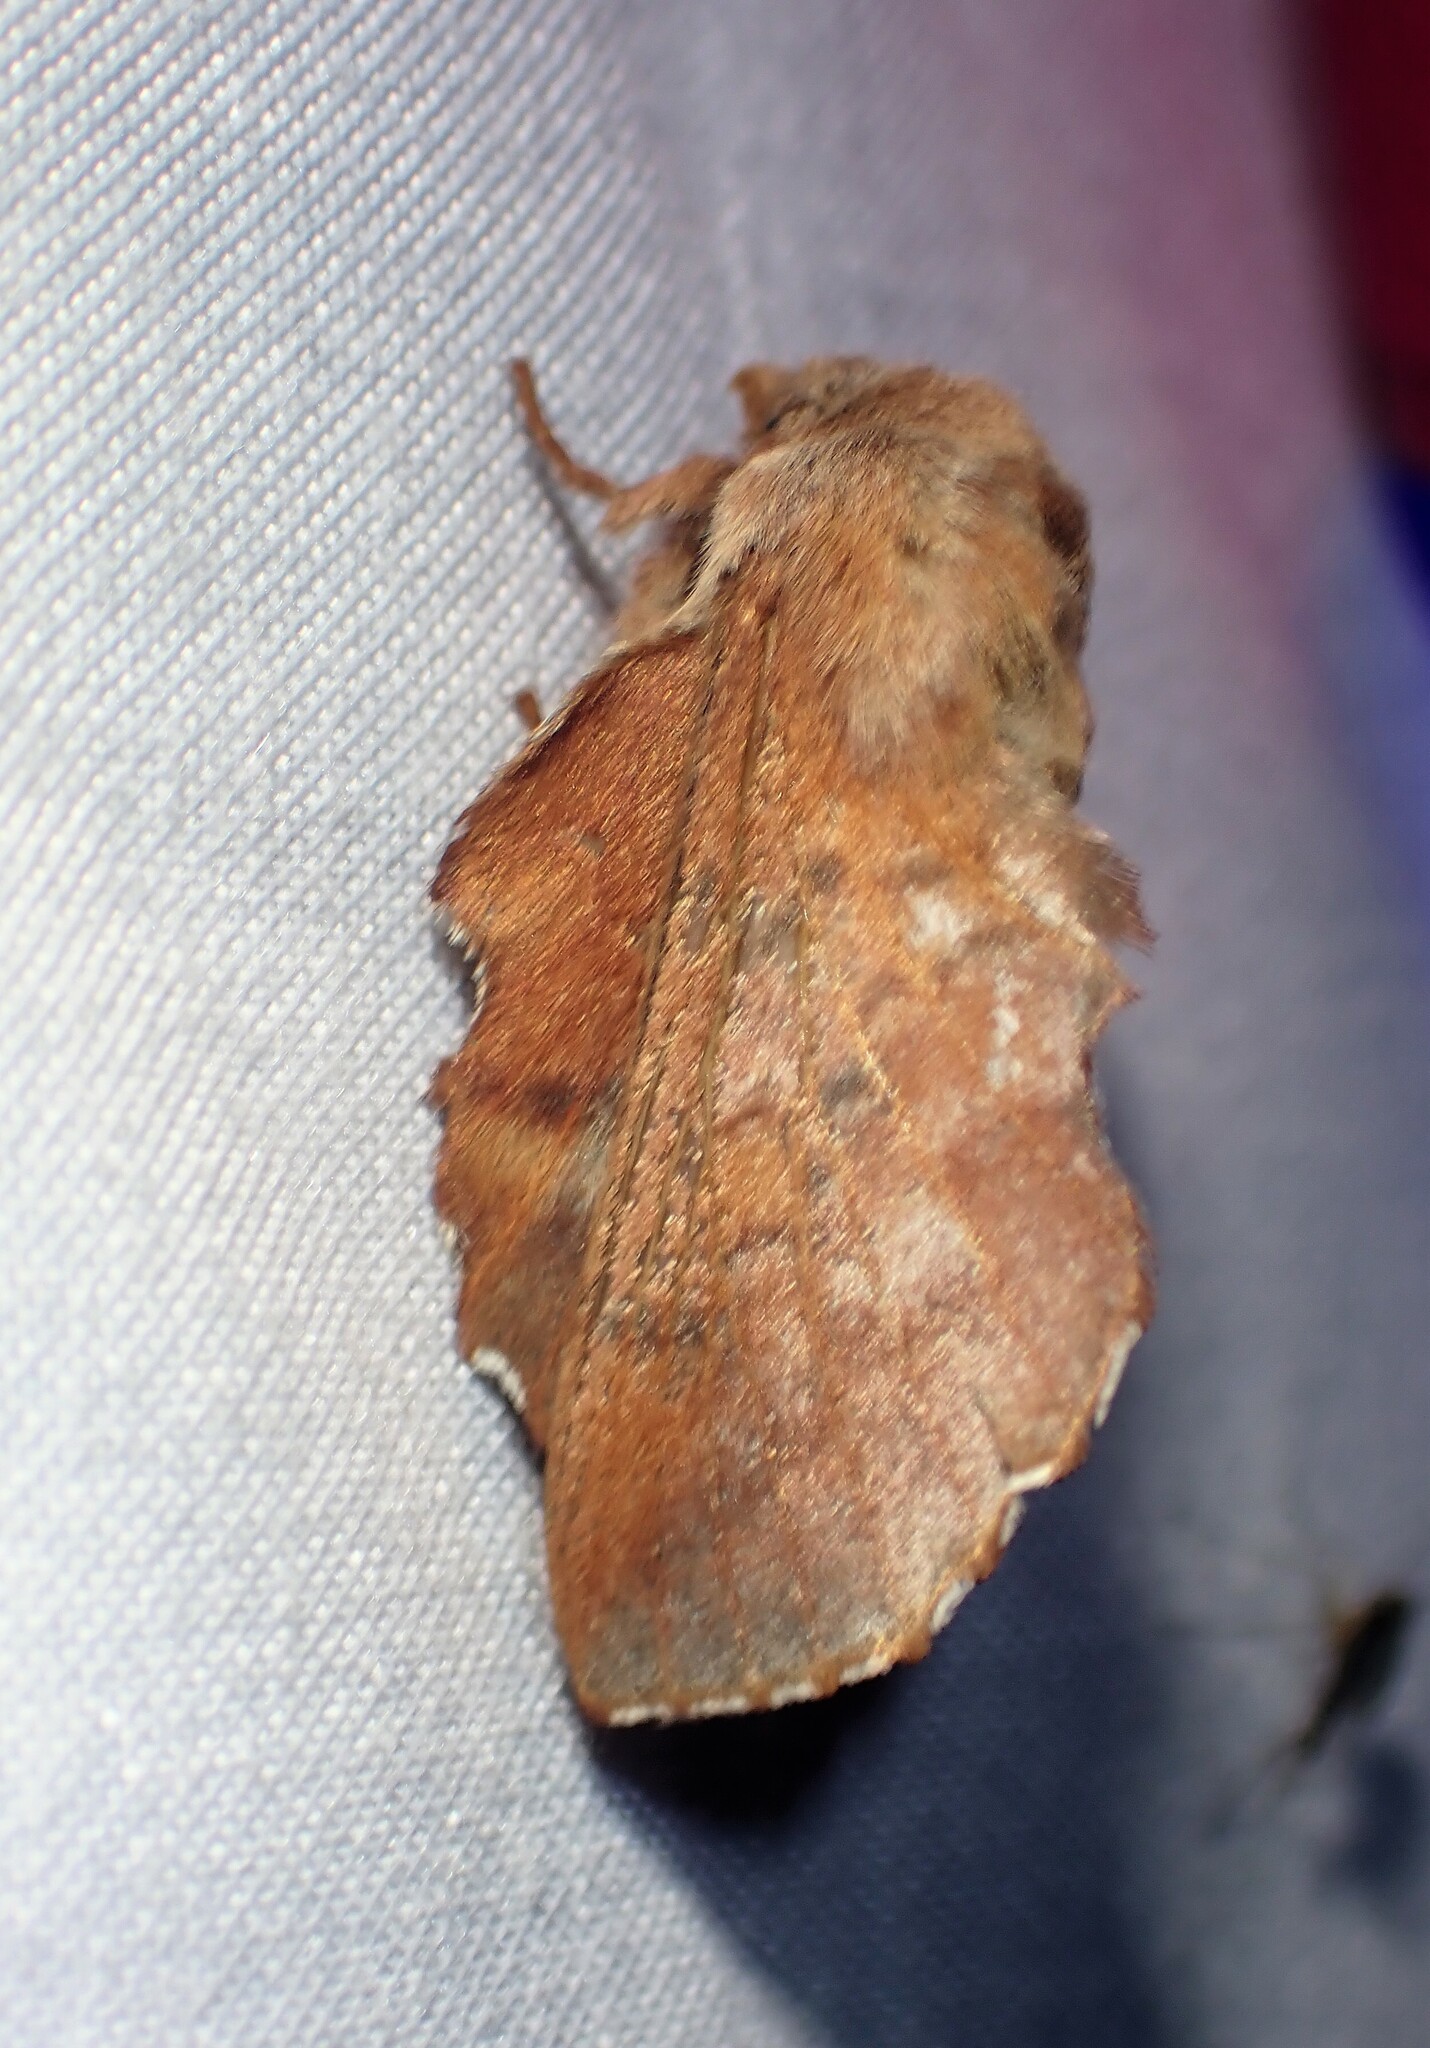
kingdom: Animalia
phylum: Arthropoda
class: Insecta
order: Lepidoptera
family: Lasiocampidae
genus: Phyllodesma
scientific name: Phyllodesma americana
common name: American lappet moth
